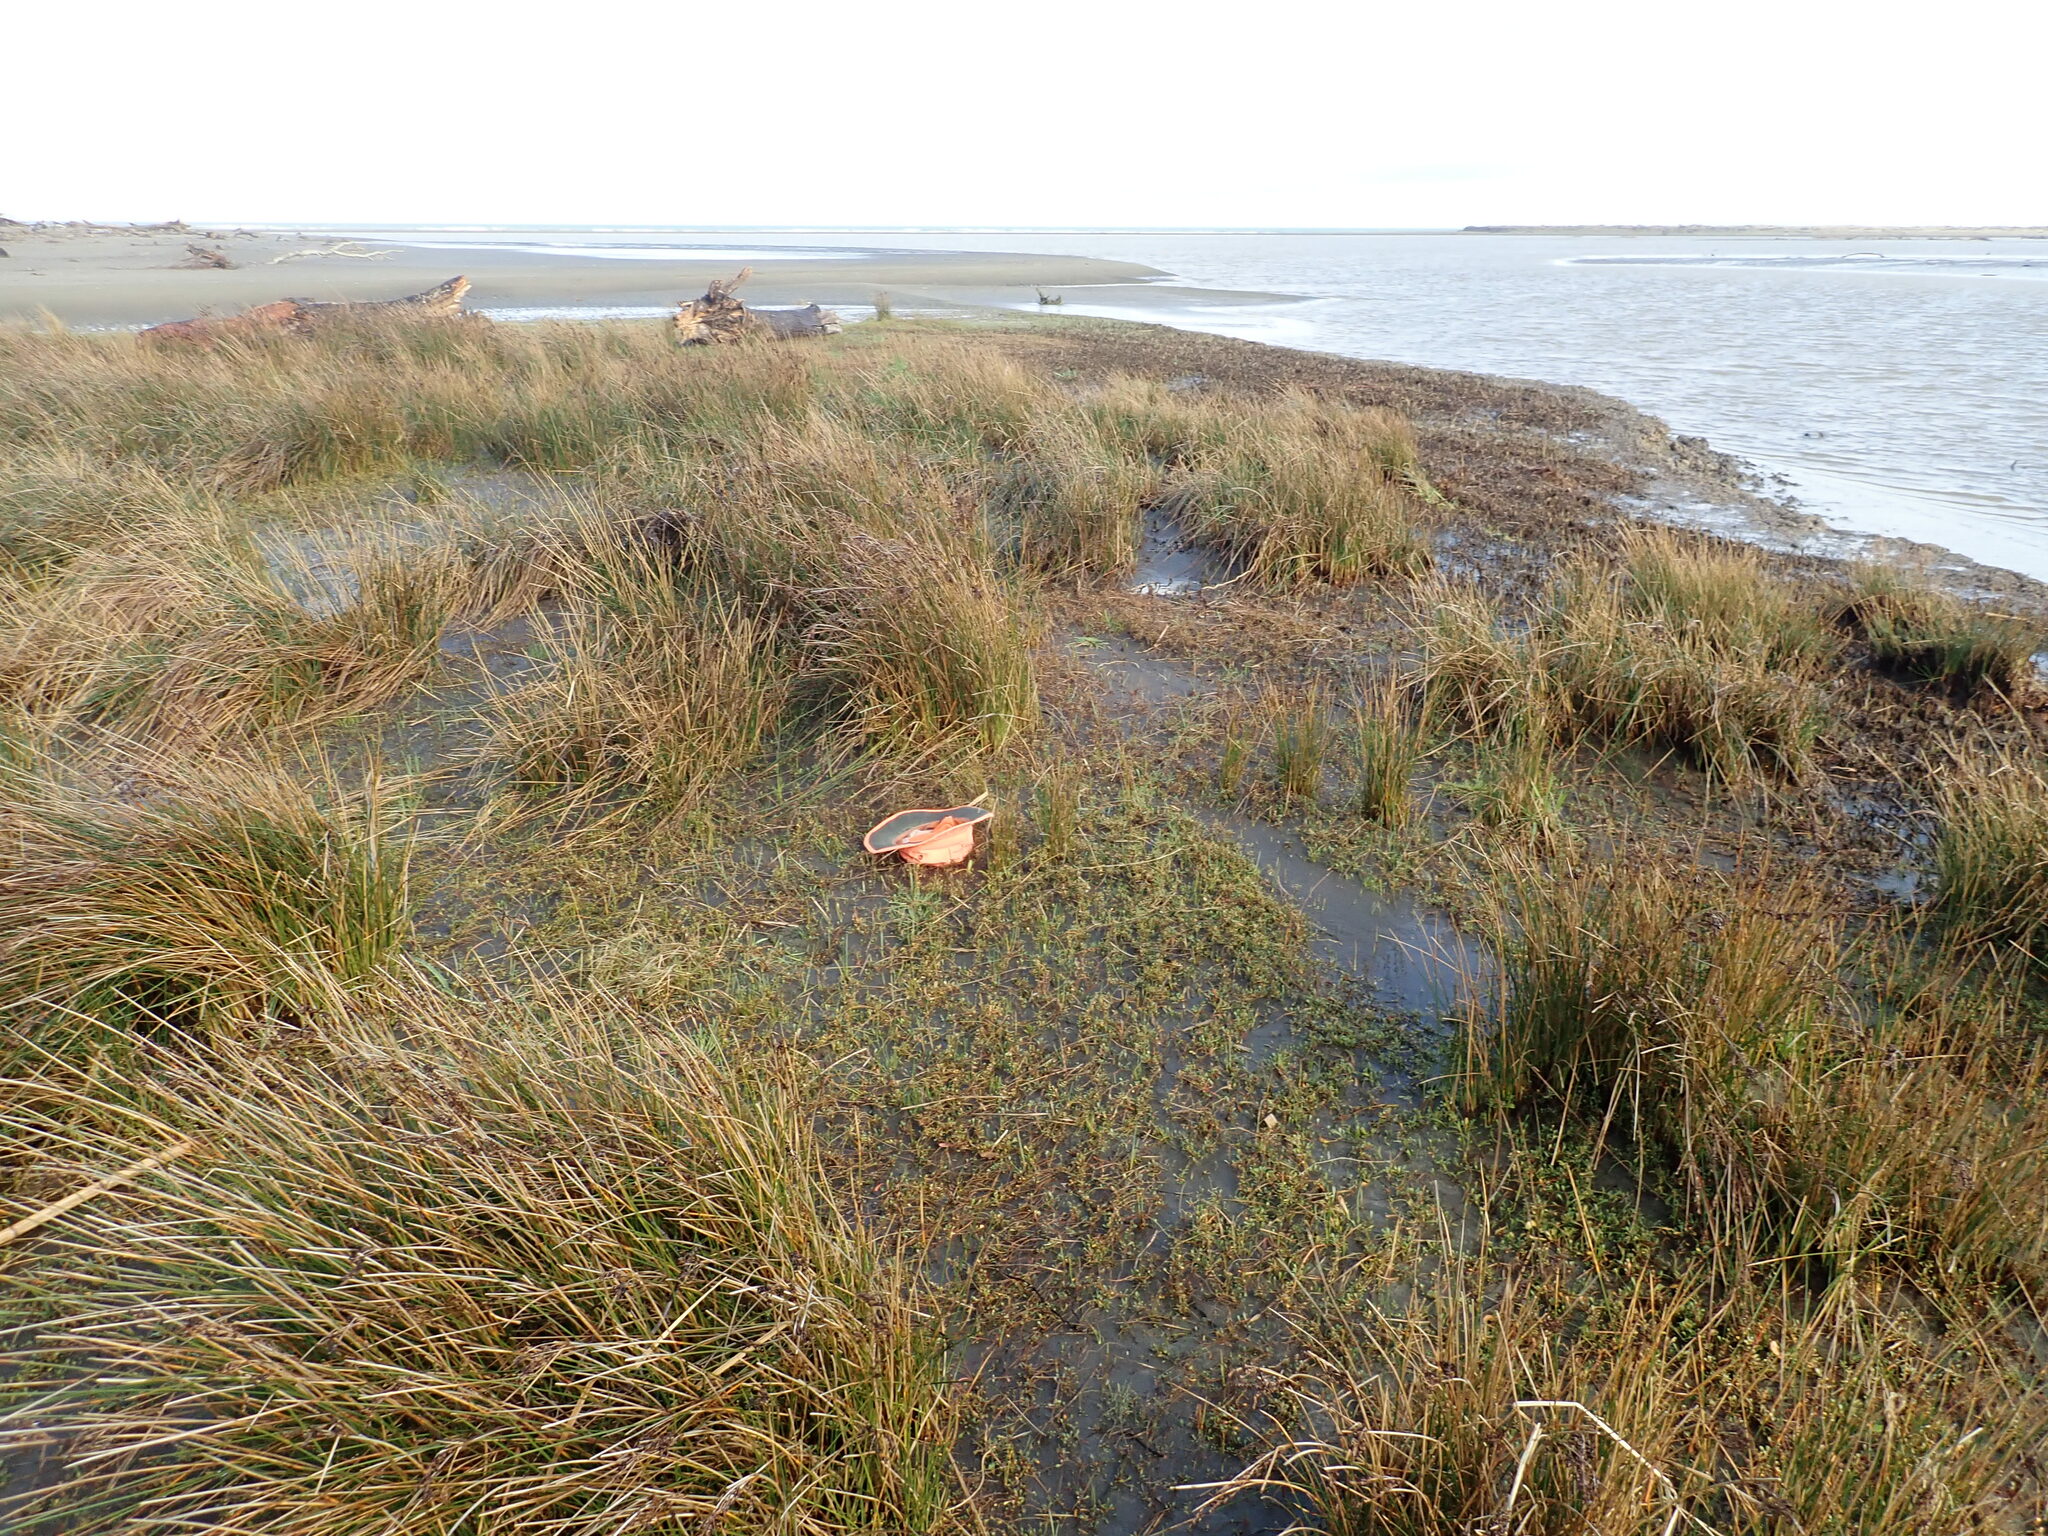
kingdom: Plantae
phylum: Tracheophyta
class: Magnoliopsida
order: Asterales
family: Goodeniaceae
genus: Goodenia
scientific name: Goodenia radicans
